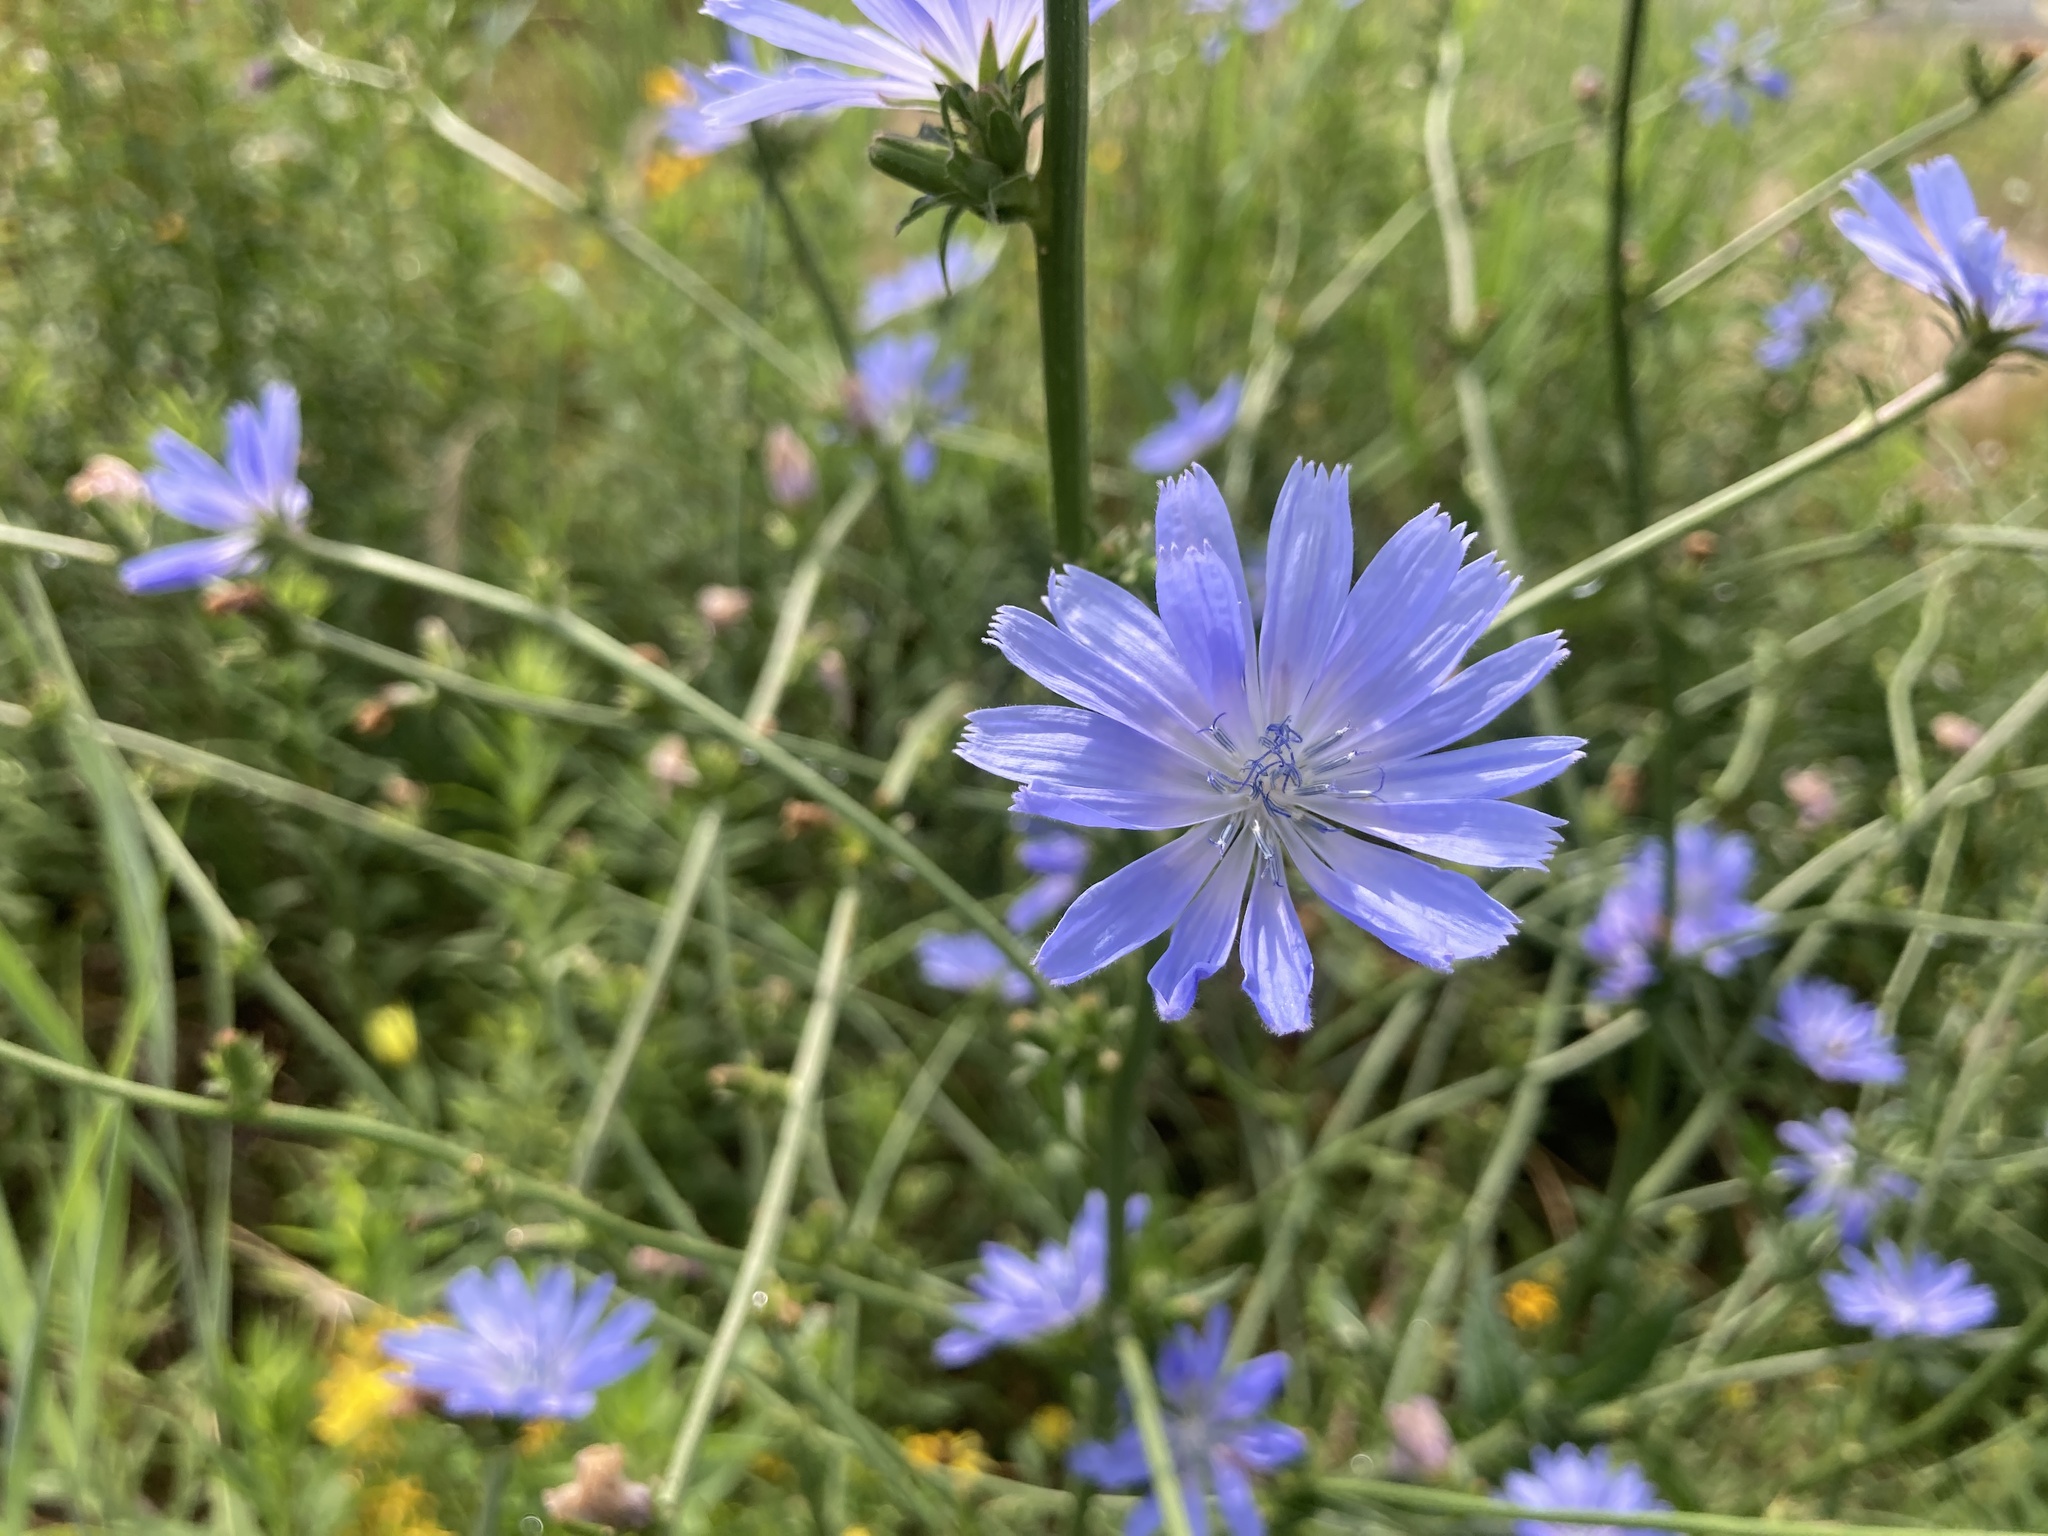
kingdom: Plantae
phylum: Tracheophyta
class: Magnoliopsida
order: Asterales
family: Asteraceae
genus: Cichorium
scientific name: Cichorium intybus
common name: Chicory
